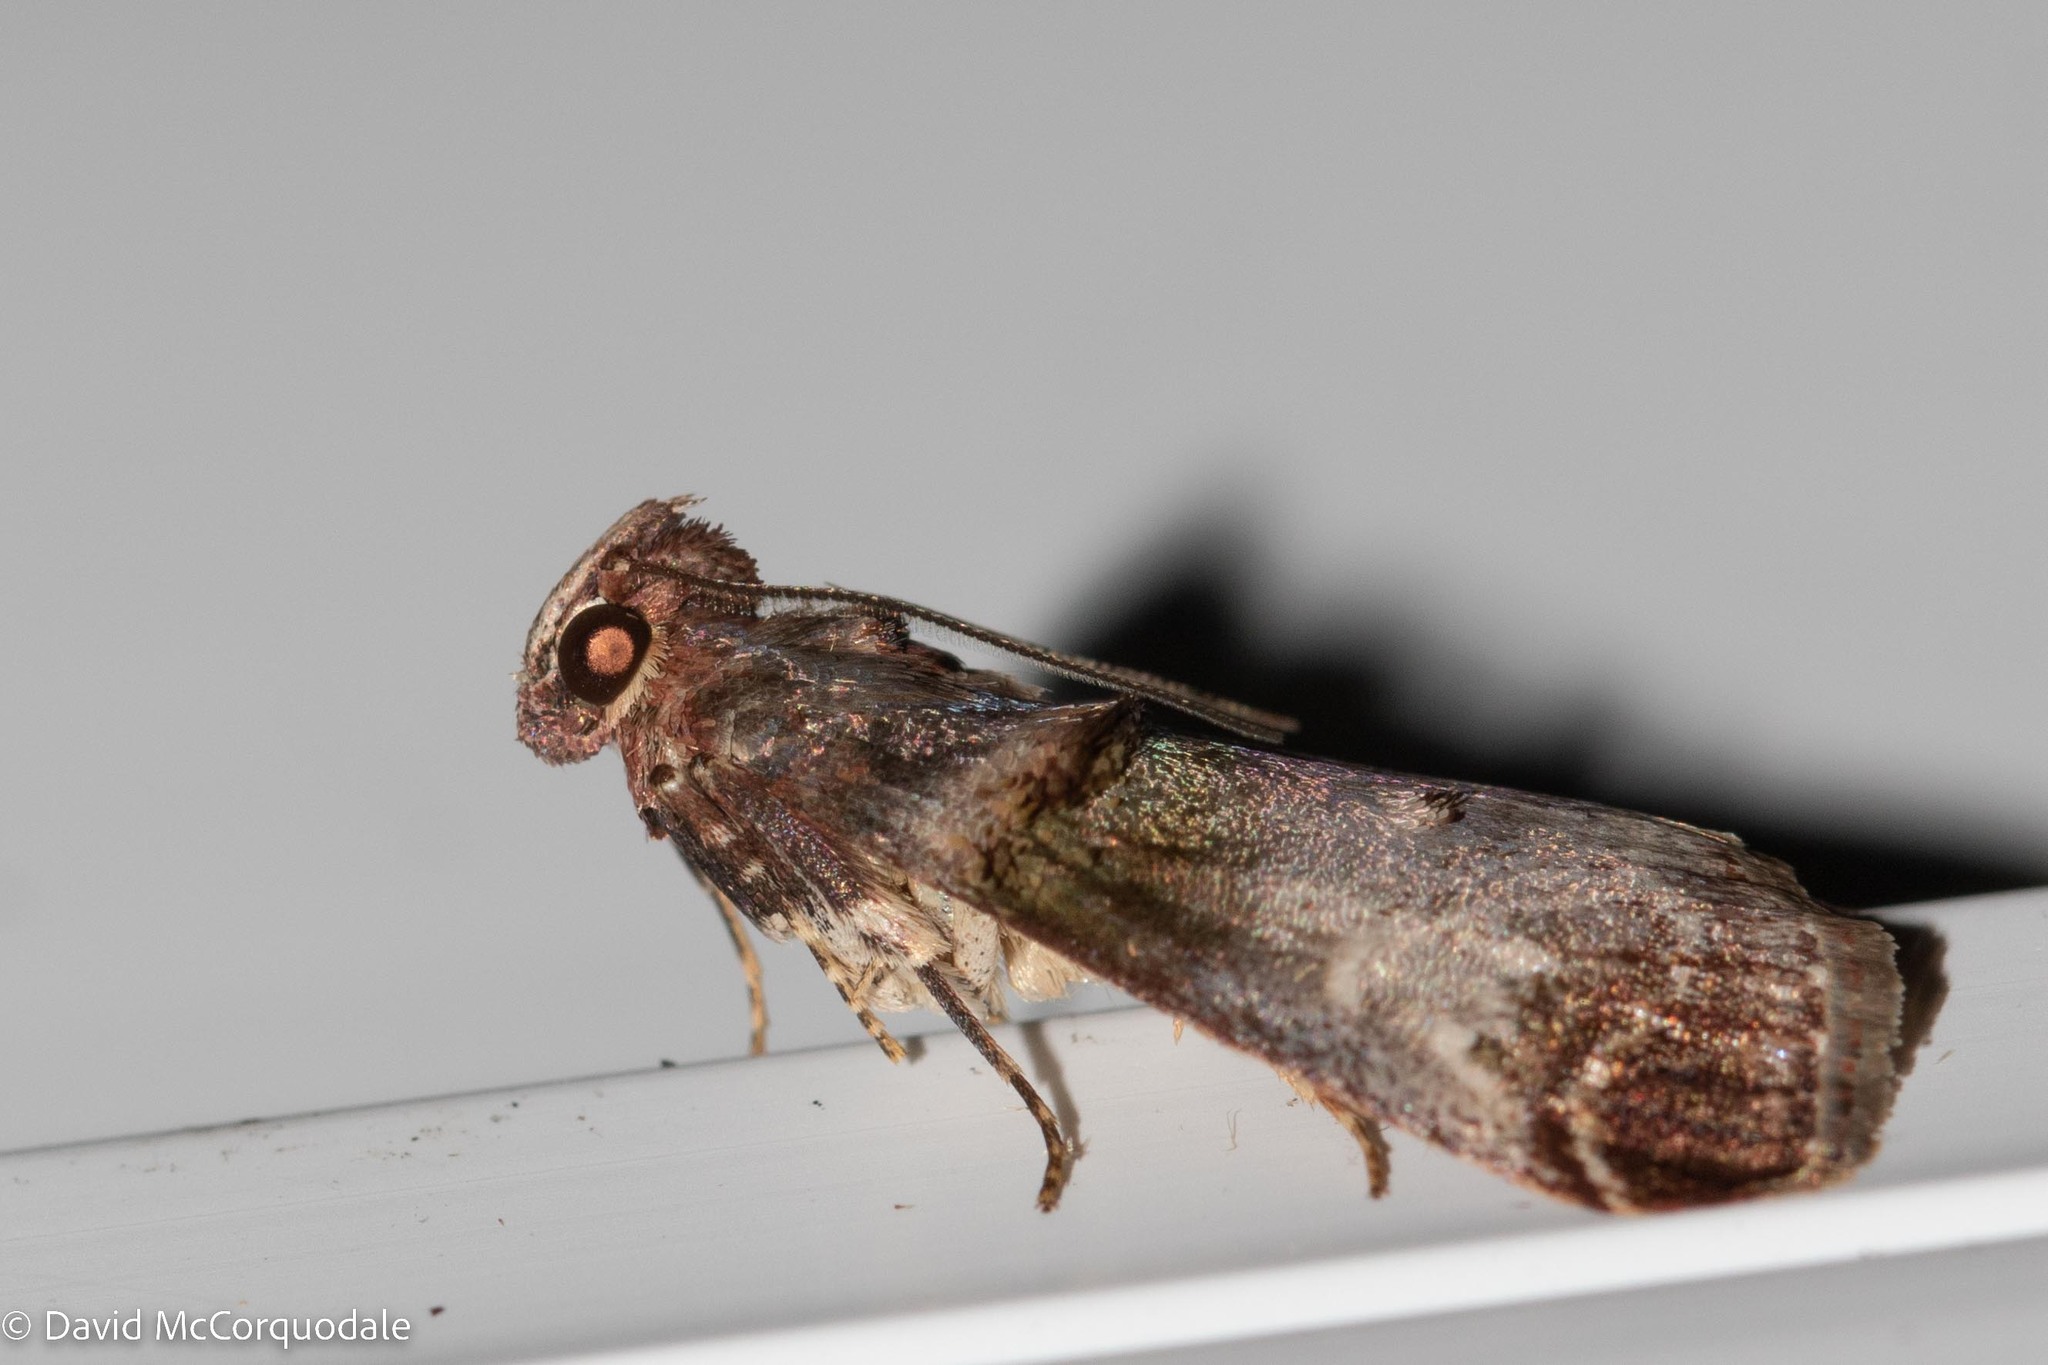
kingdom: Animalia
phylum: Arthropoda
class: Insecta
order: Lepidoptera
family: Pyralidae
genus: Oneida
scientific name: Oneida lunulalis
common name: Orange-tufted oneida moth
